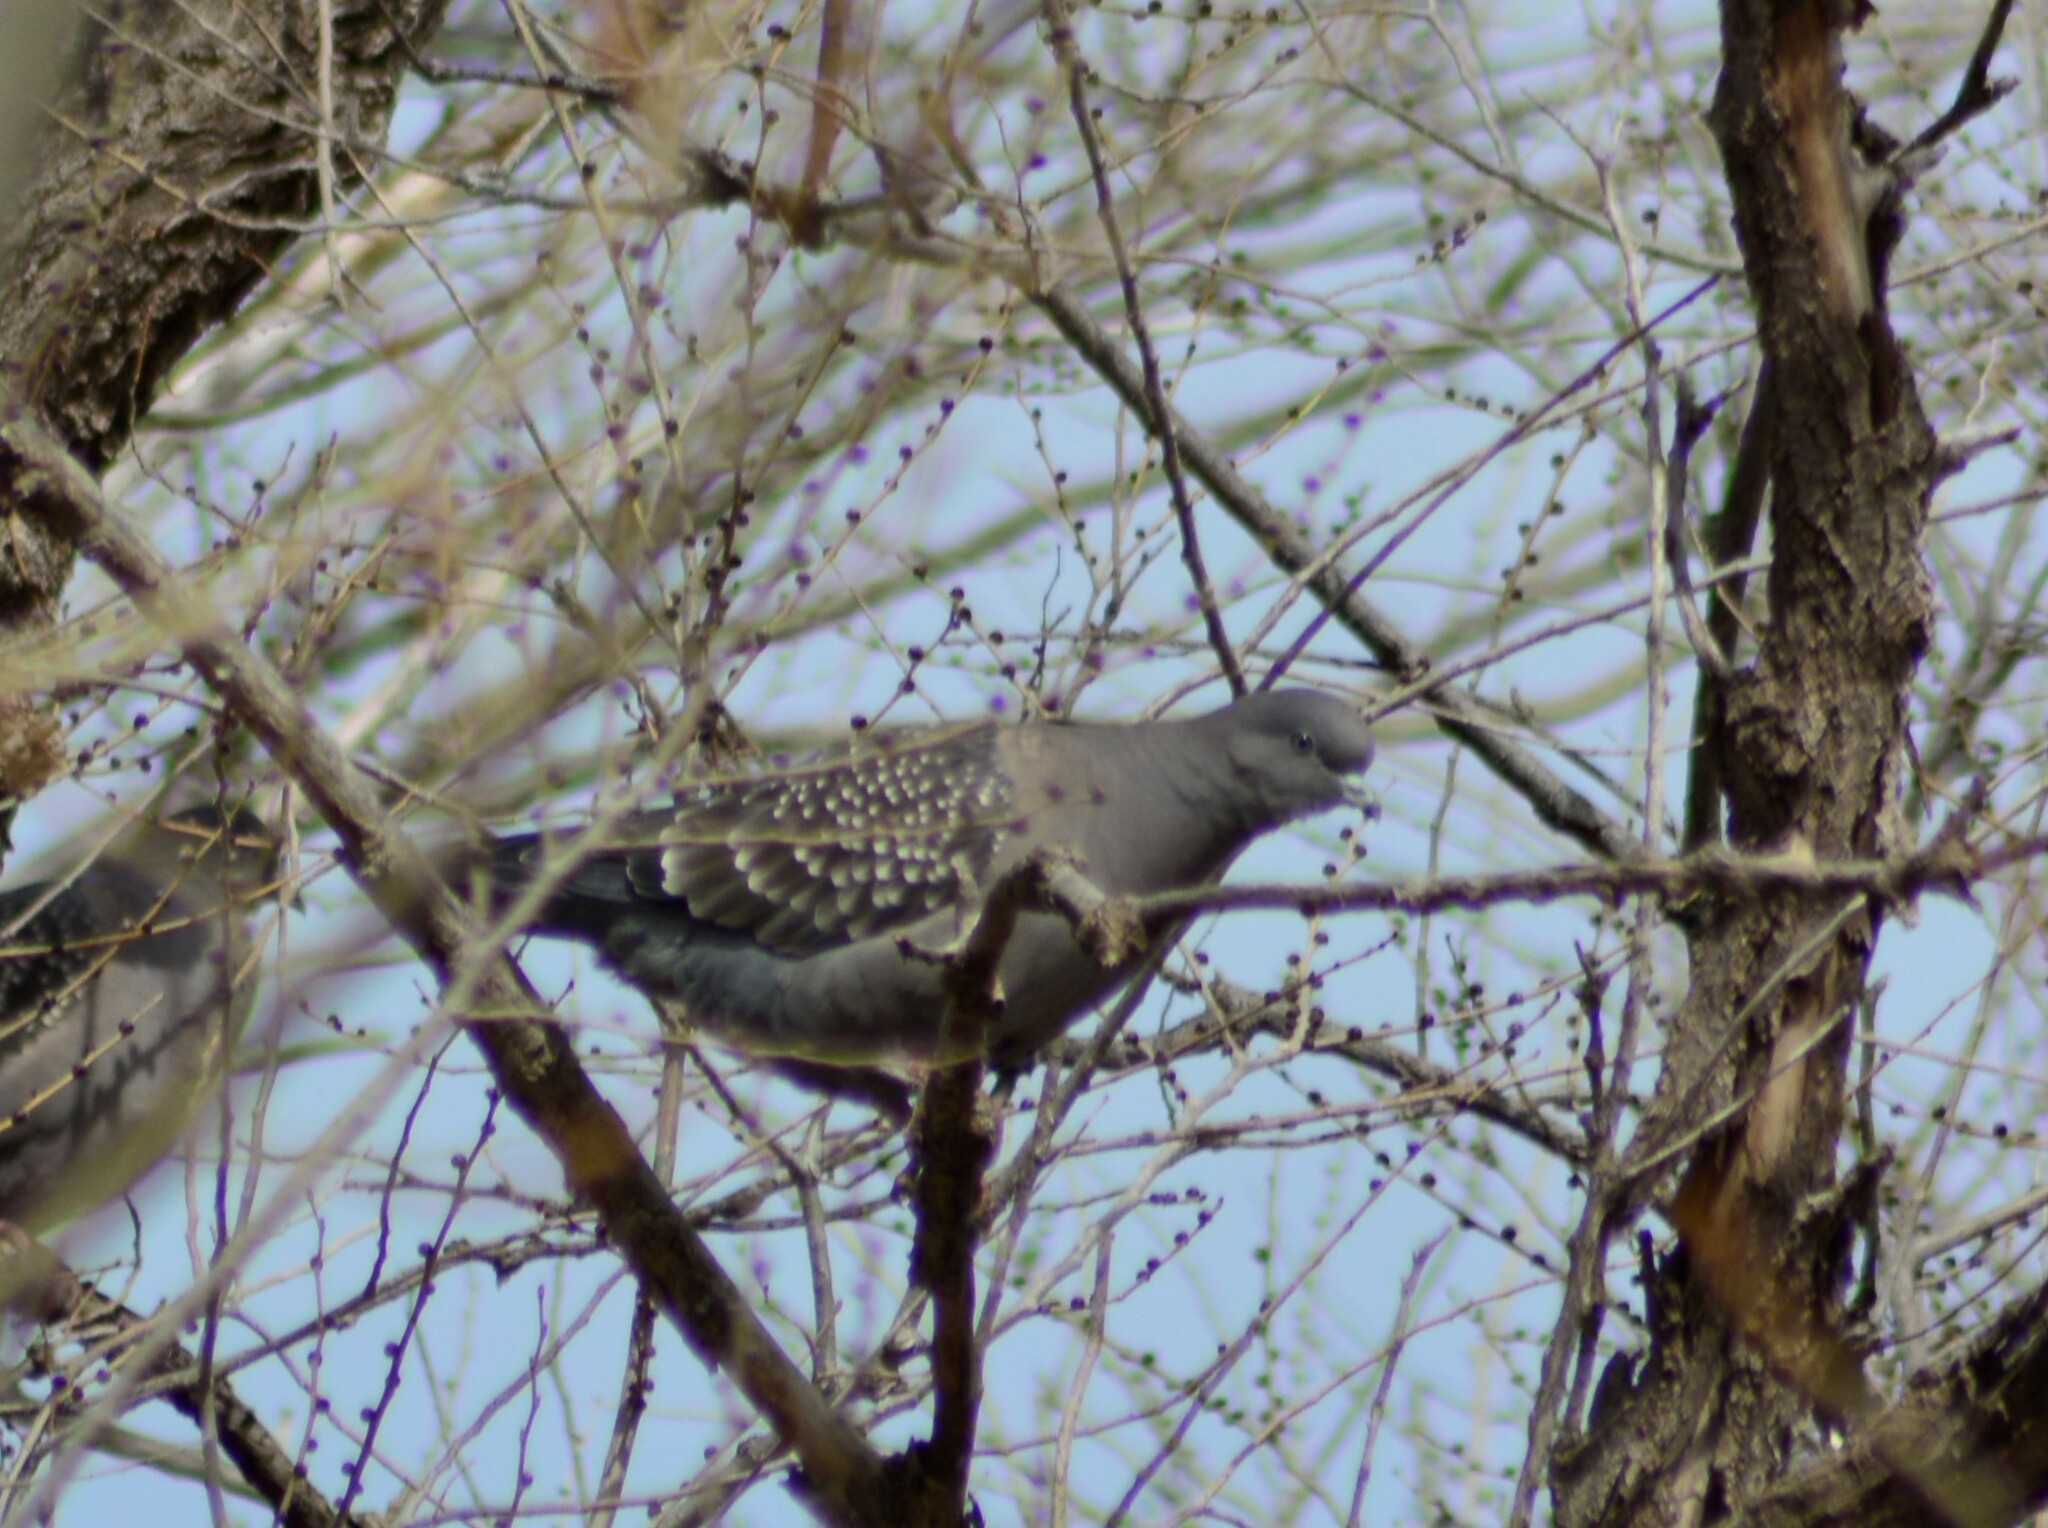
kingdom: Animalia
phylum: Chordata
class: Aves
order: Columbiformes
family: Columbidae
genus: Patagioenas
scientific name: Patagioenas maculosa
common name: Spot-winged pigeon
